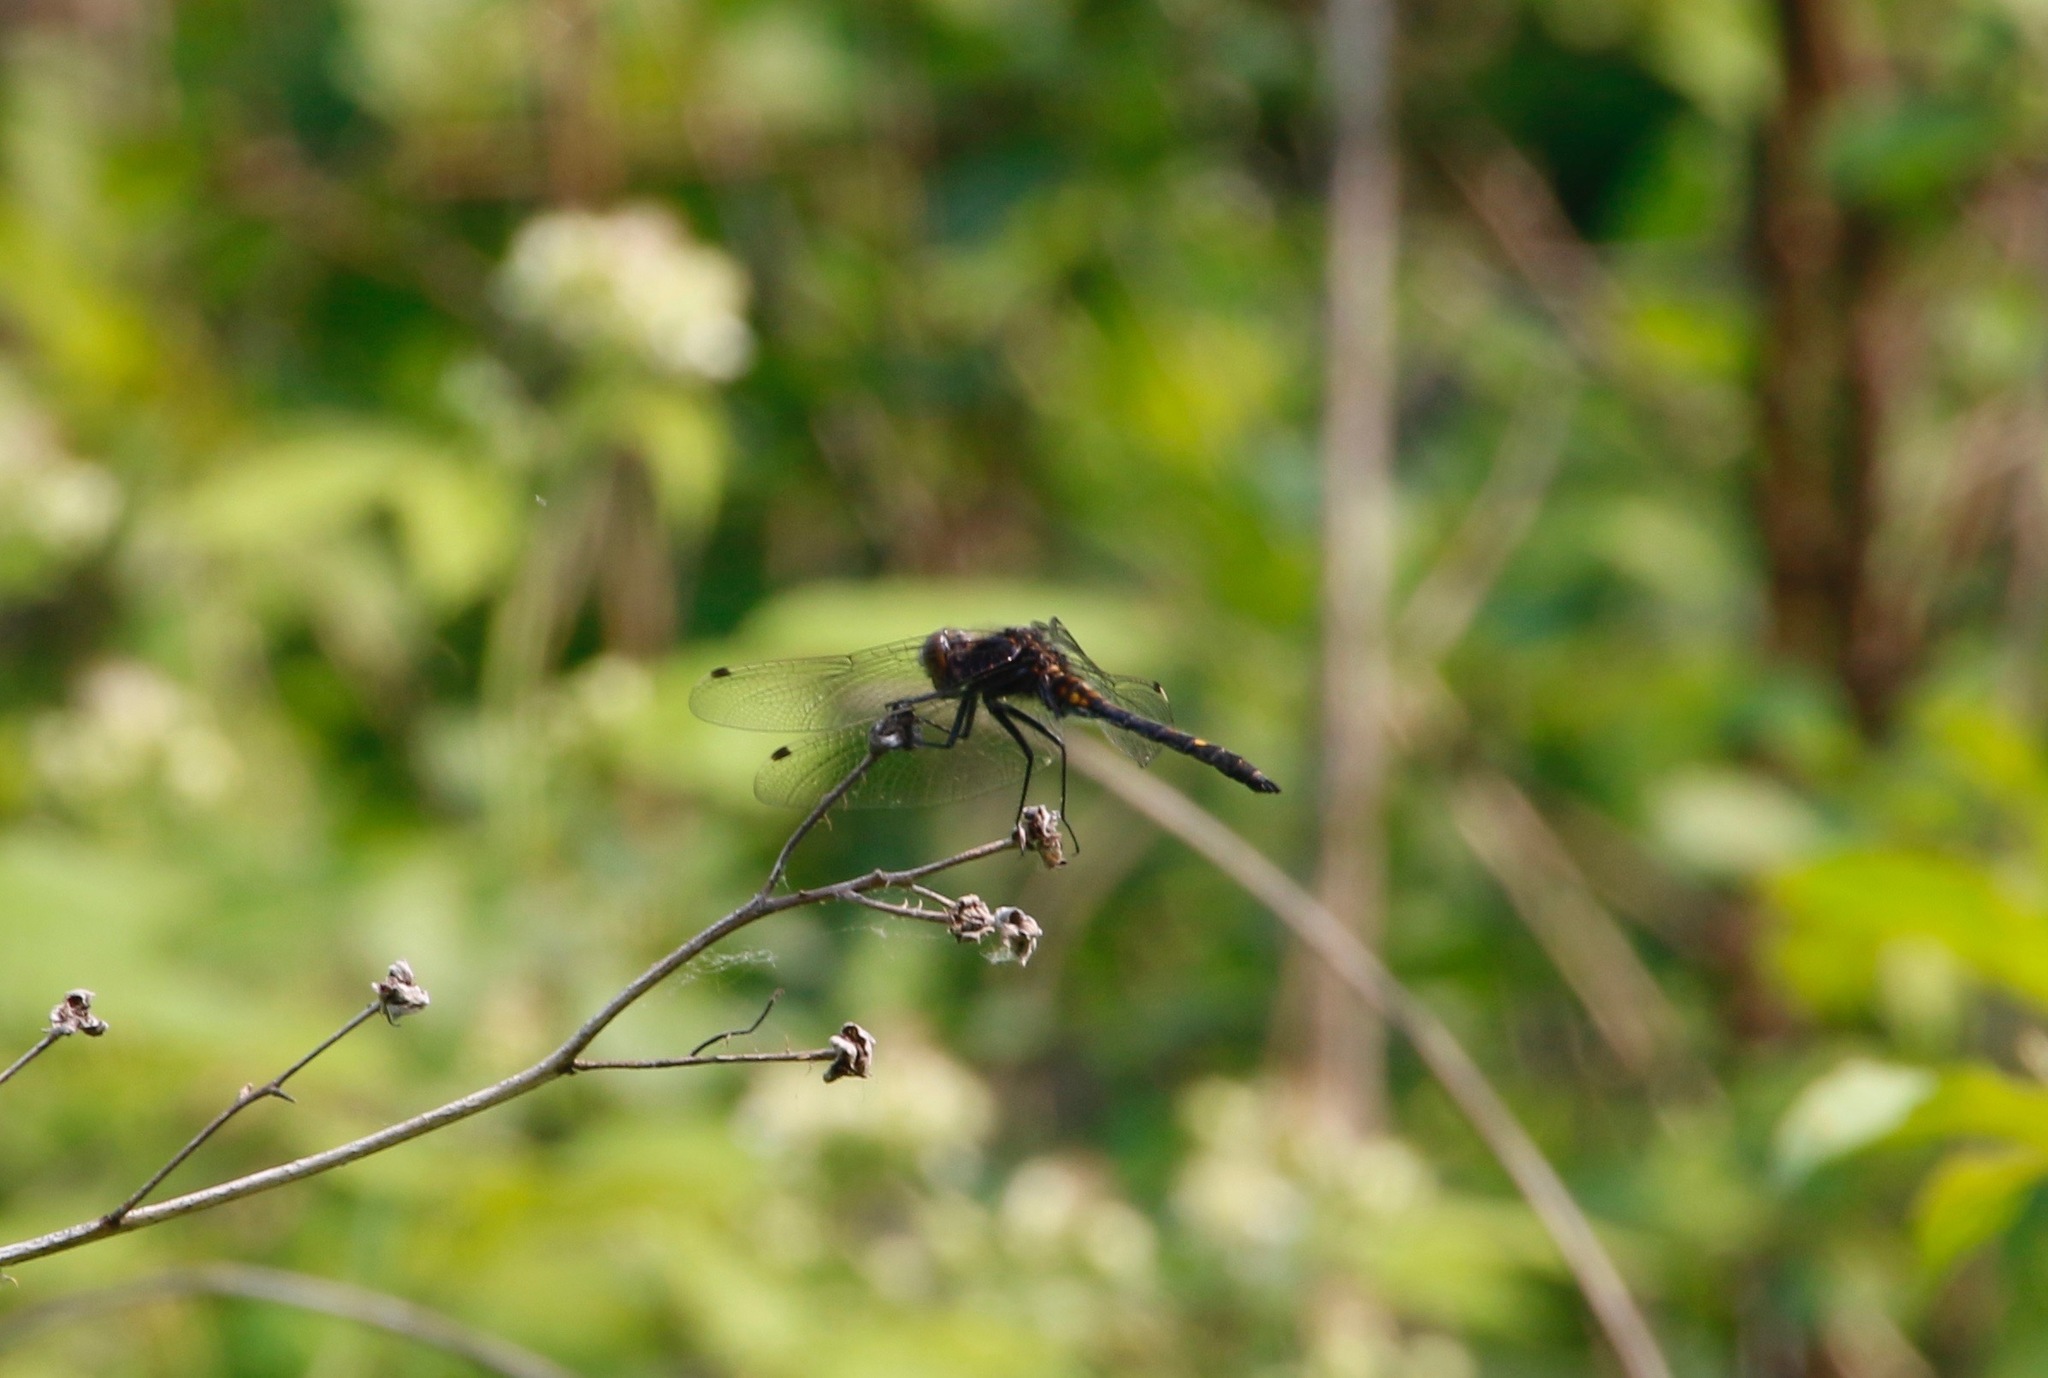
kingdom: Animalia
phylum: Arthropoda
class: Insecta
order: Odonata
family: Libellulidae
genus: Leucorrhinia
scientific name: Leucorrhinia intacta
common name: Dot-tailed whiteface
